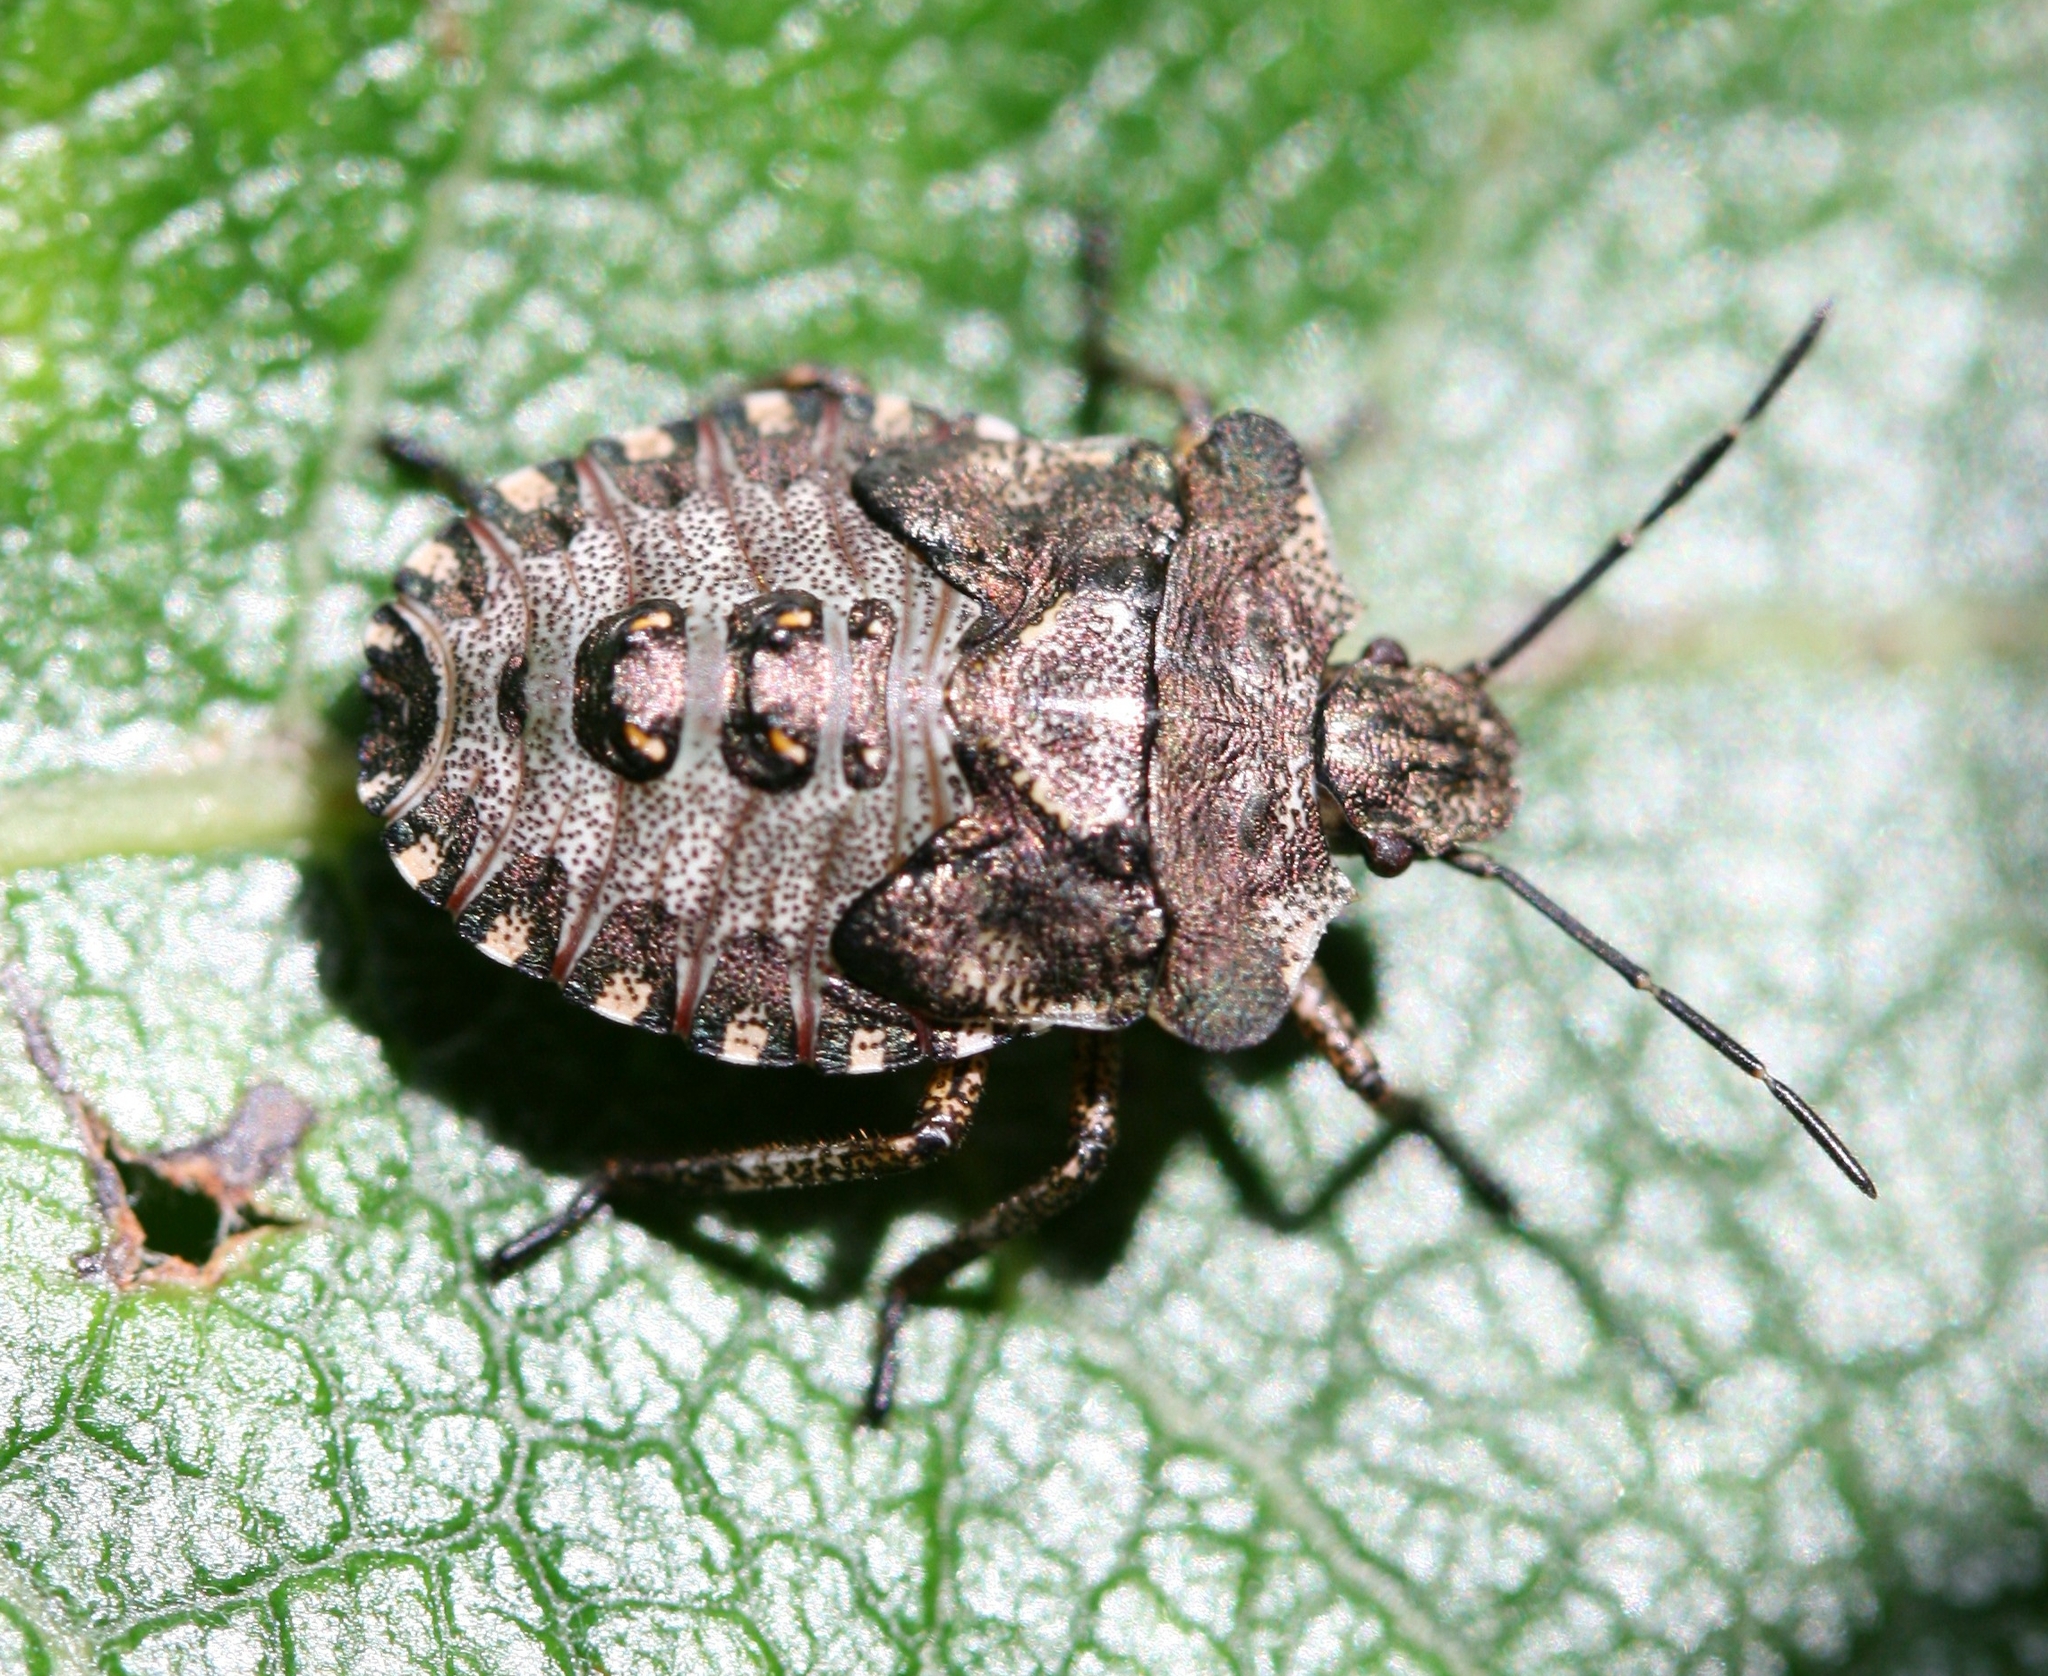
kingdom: Animalia
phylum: Arthropoda
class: Insecta
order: Hemiptera
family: Pentatomidae
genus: Pentatoma
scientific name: Pentatoma rufipes
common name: Forest bug
